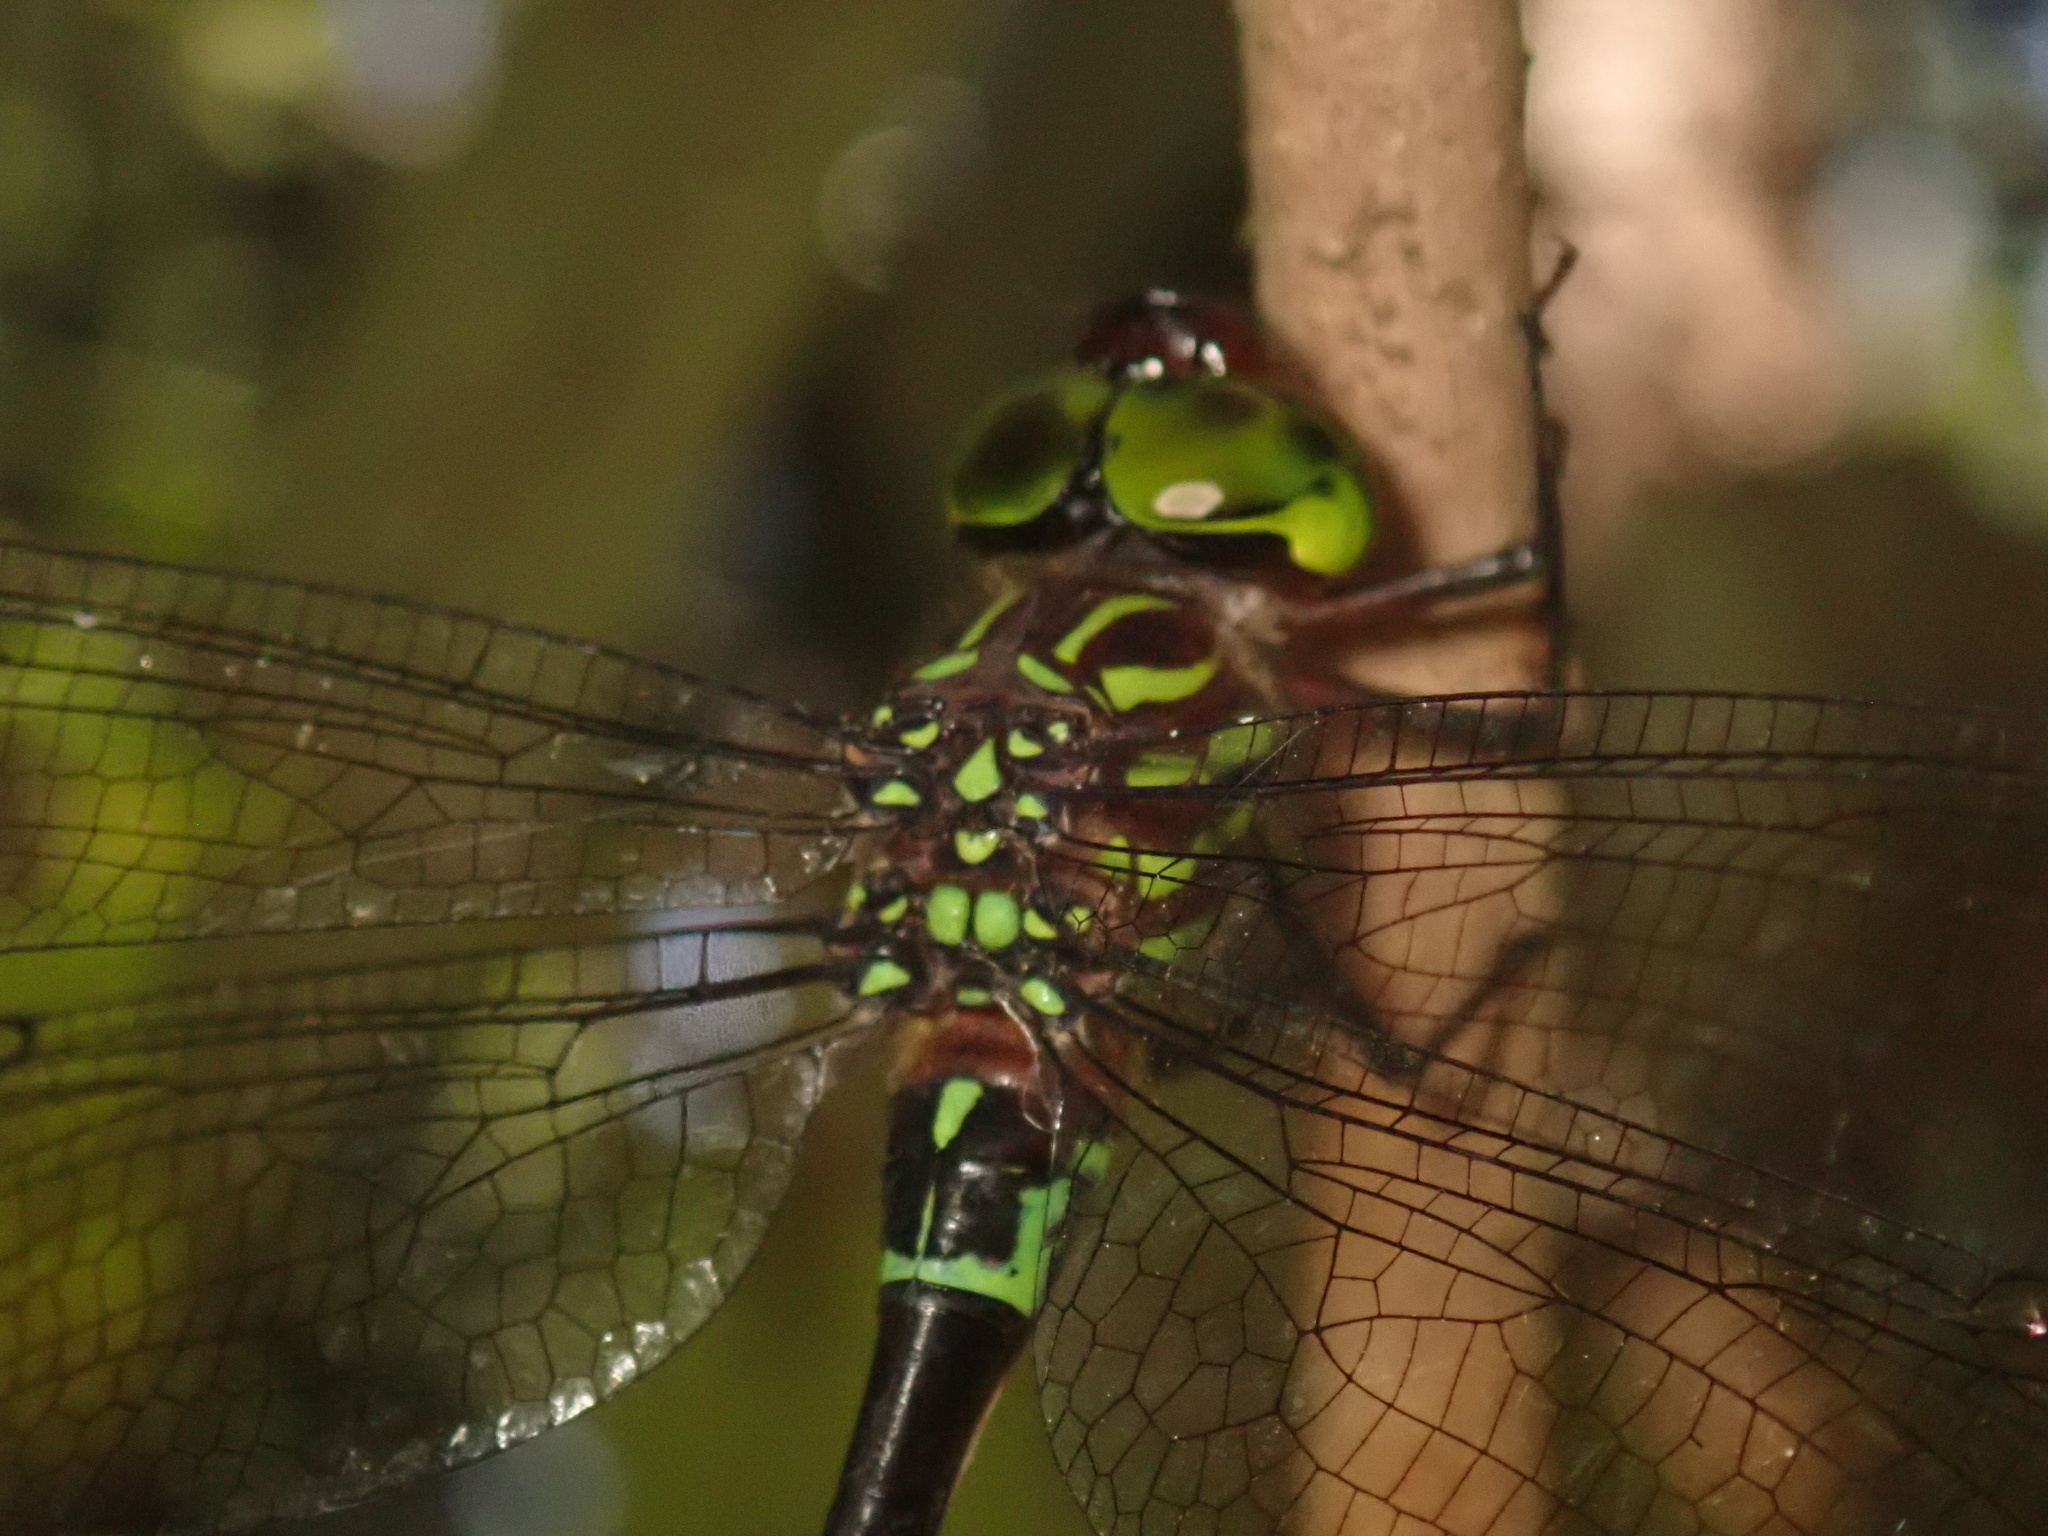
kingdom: Animalia
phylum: Arthropoda
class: Insecta
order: Odonata
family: Aeshnidae
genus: Dromaeschna
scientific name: Dromaeschna forcipata
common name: Green-striped darner
